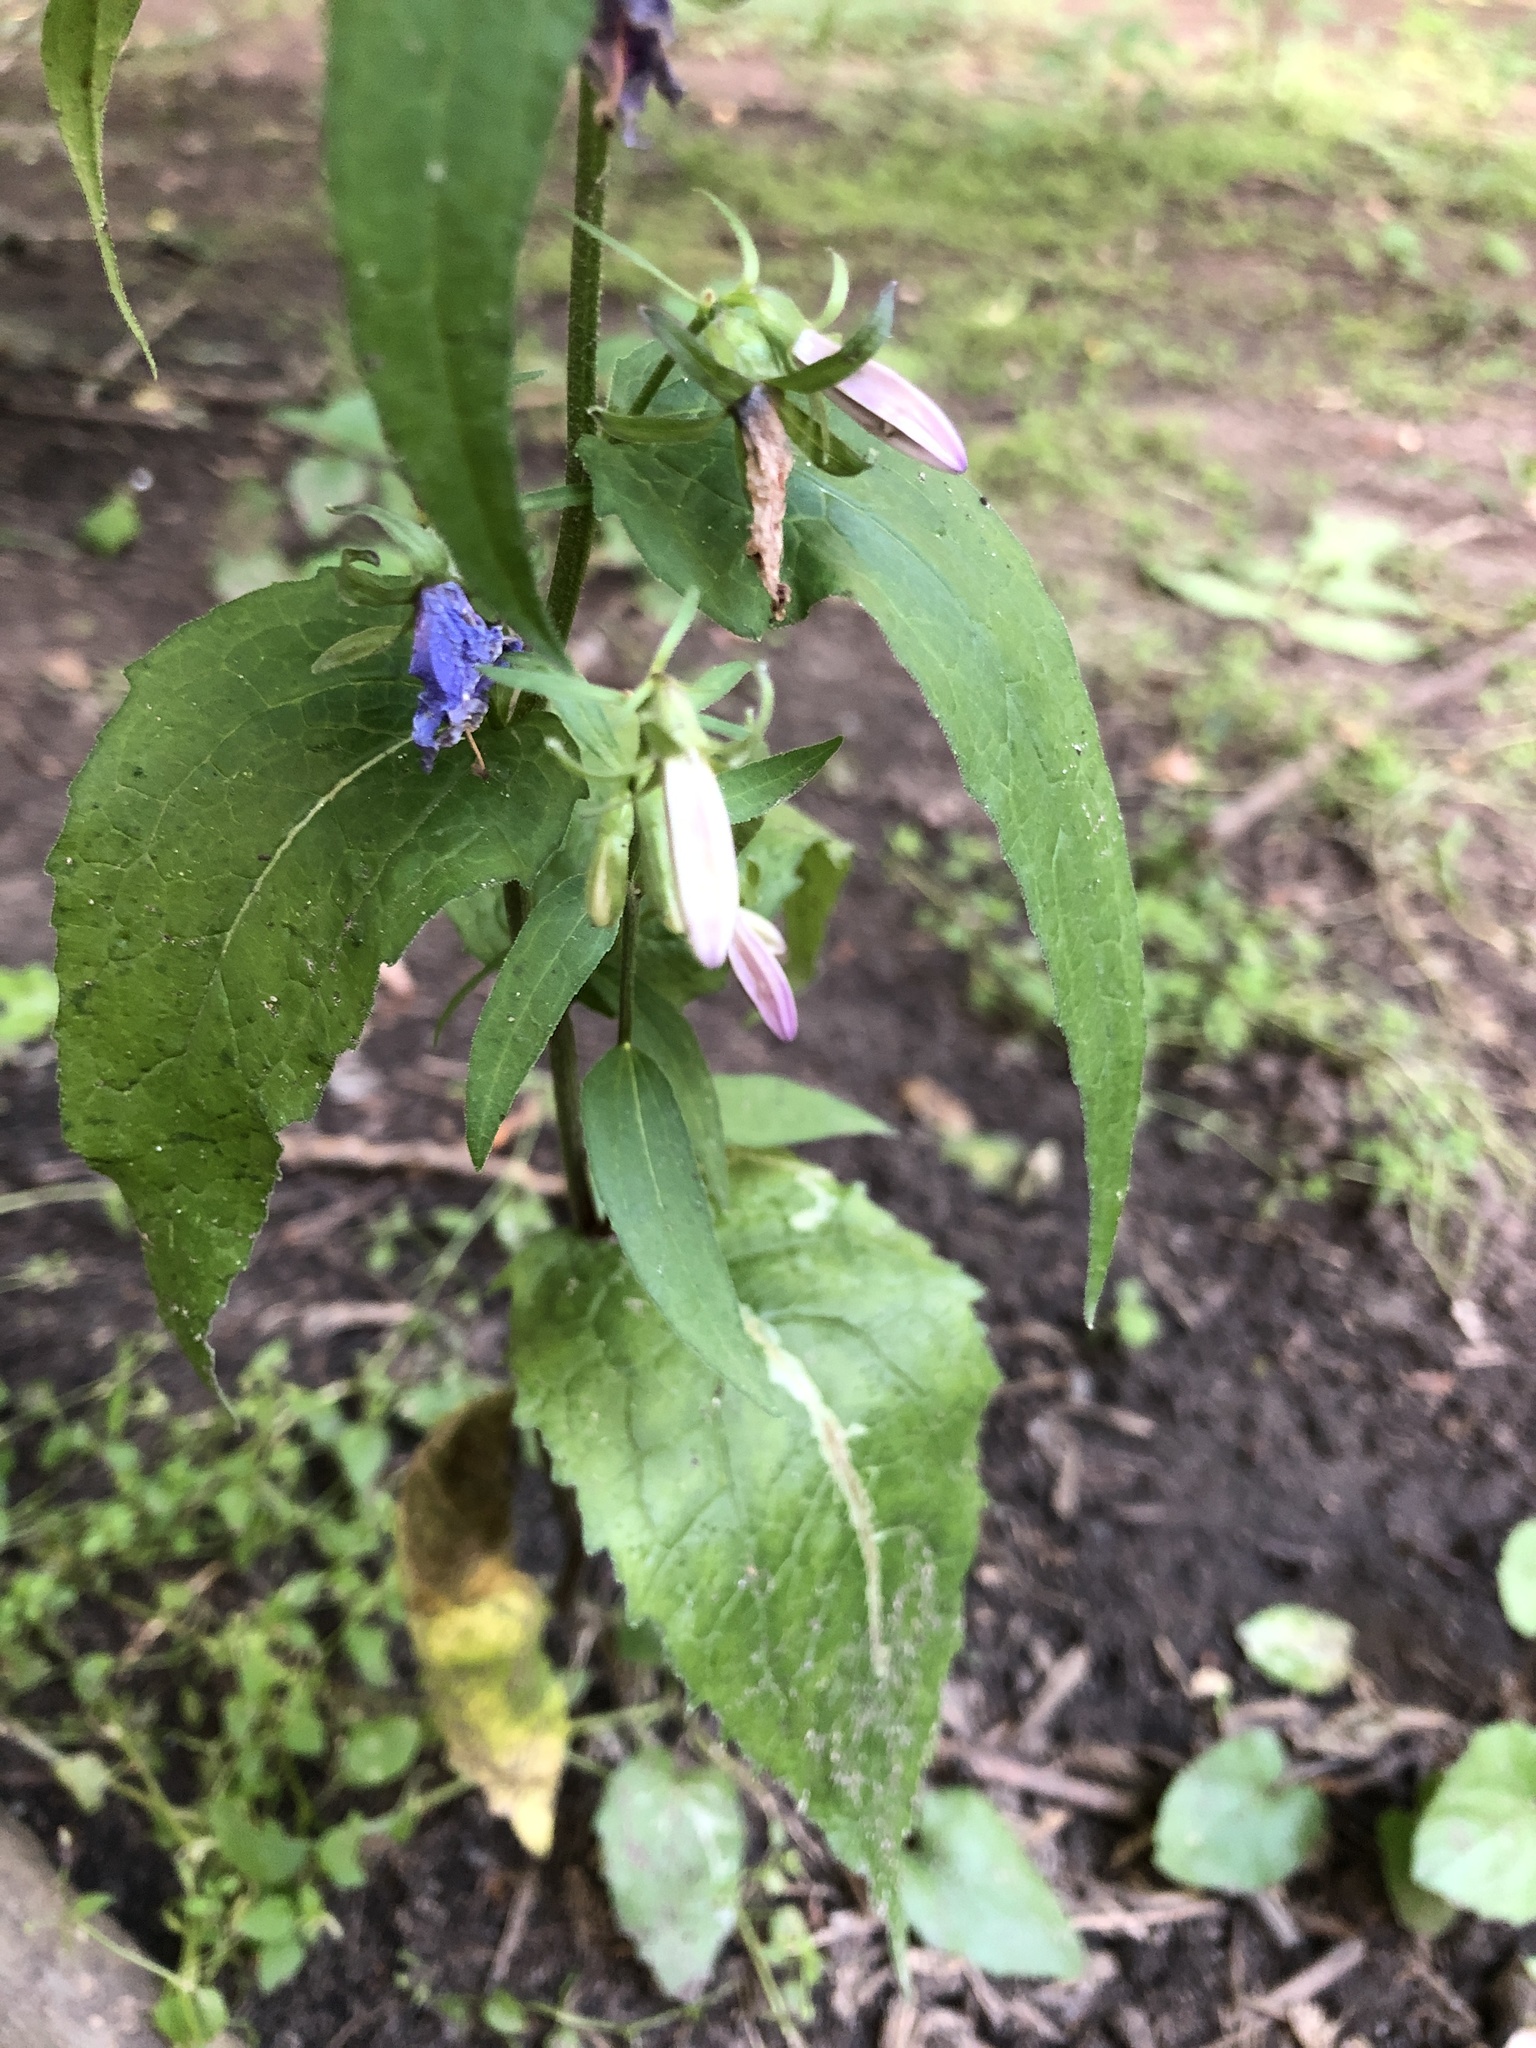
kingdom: Plantae
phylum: Tracheophyta
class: Magnoliopsida
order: Asterales
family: Campanulaceae
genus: Campanula
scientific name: Campanula rapunculoides
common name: Creeping bellflower
